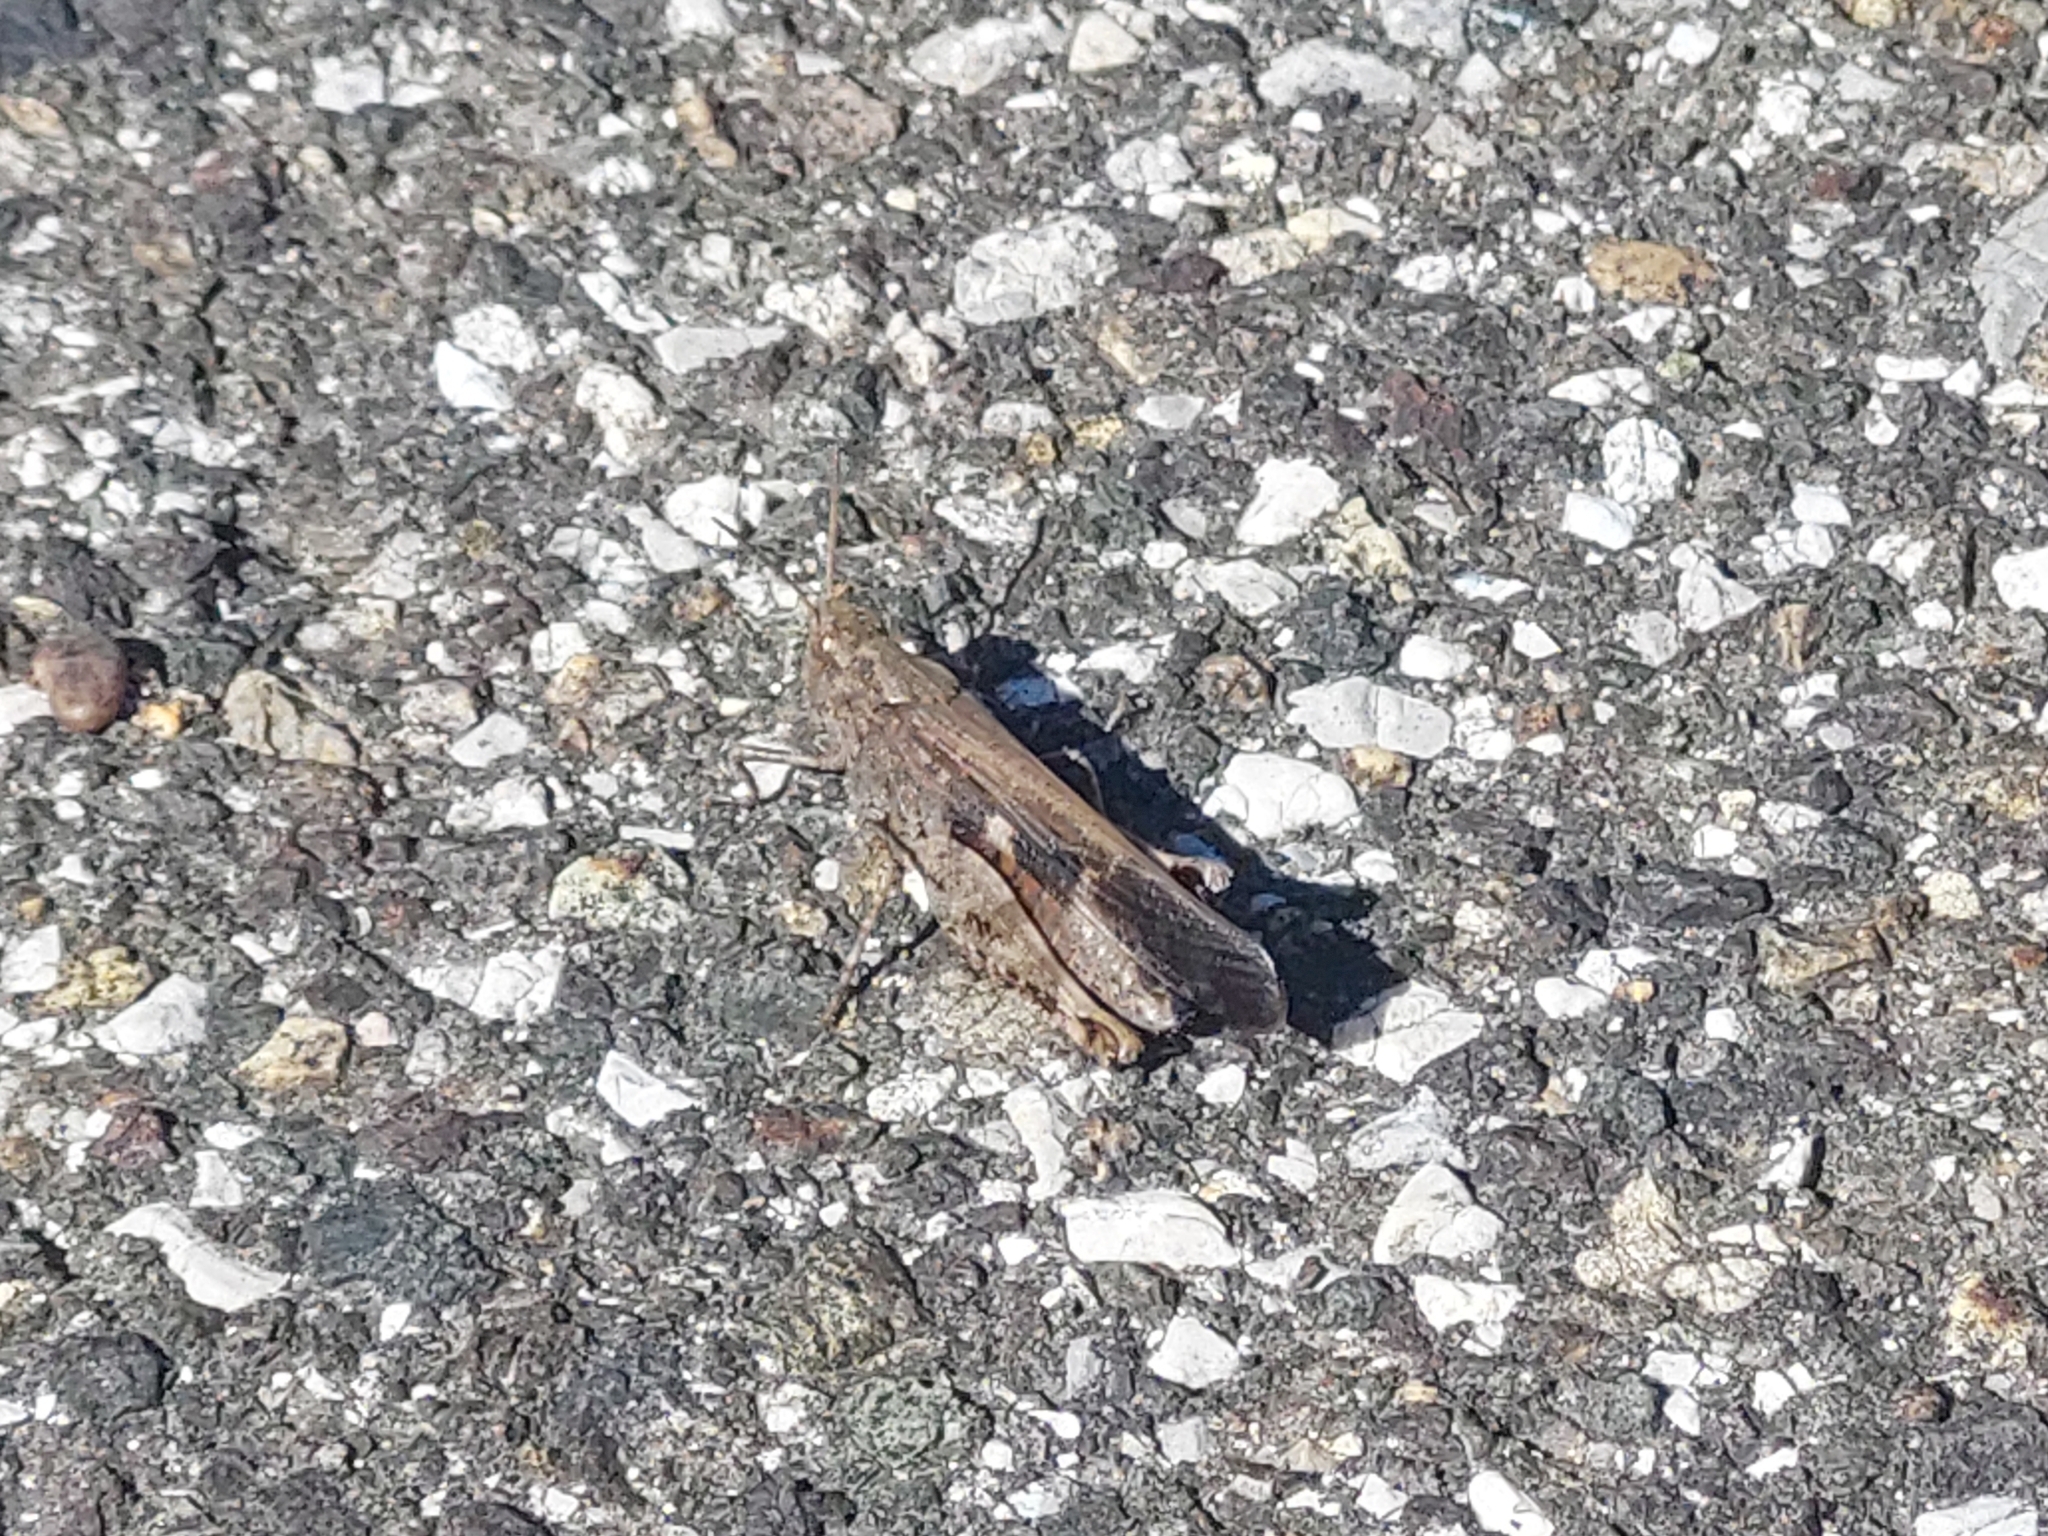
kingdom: Animalia
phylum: Arthropoda
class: Insecta
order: Orthoptera
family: Acrididae
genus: Aiolopus
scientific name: Aiolopus strepens
